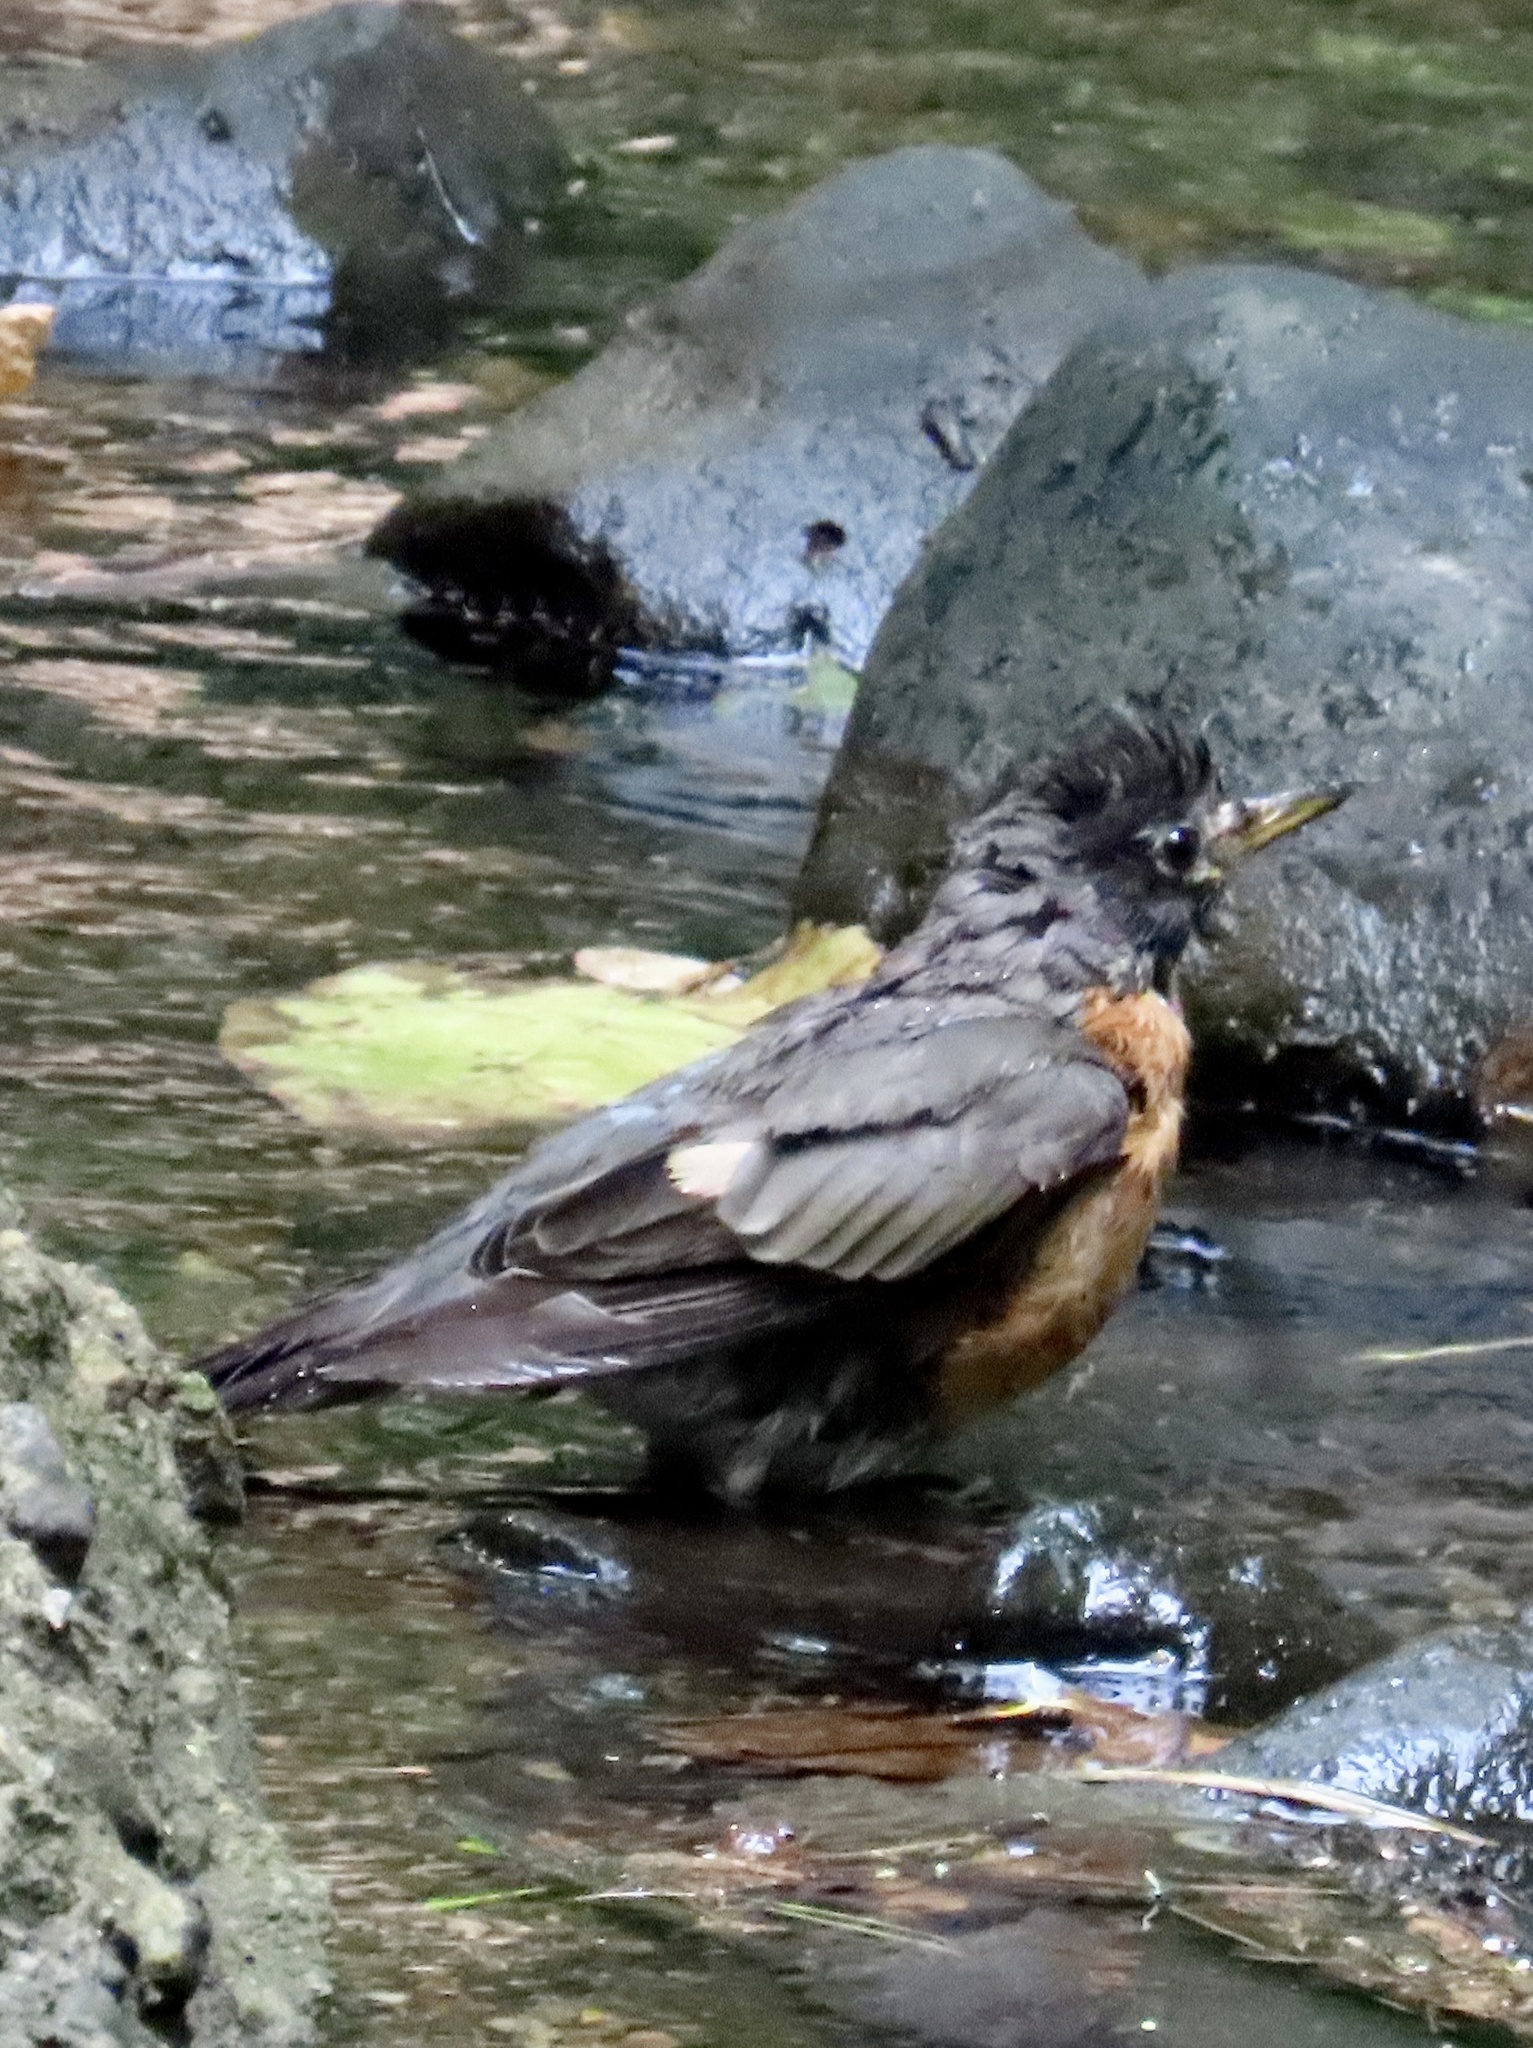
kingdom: Animalia
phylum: Chordata
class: Aves
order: Passeriformes
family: Turdidae
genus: Turdus
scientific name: Turdus migratorius
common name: American robin
